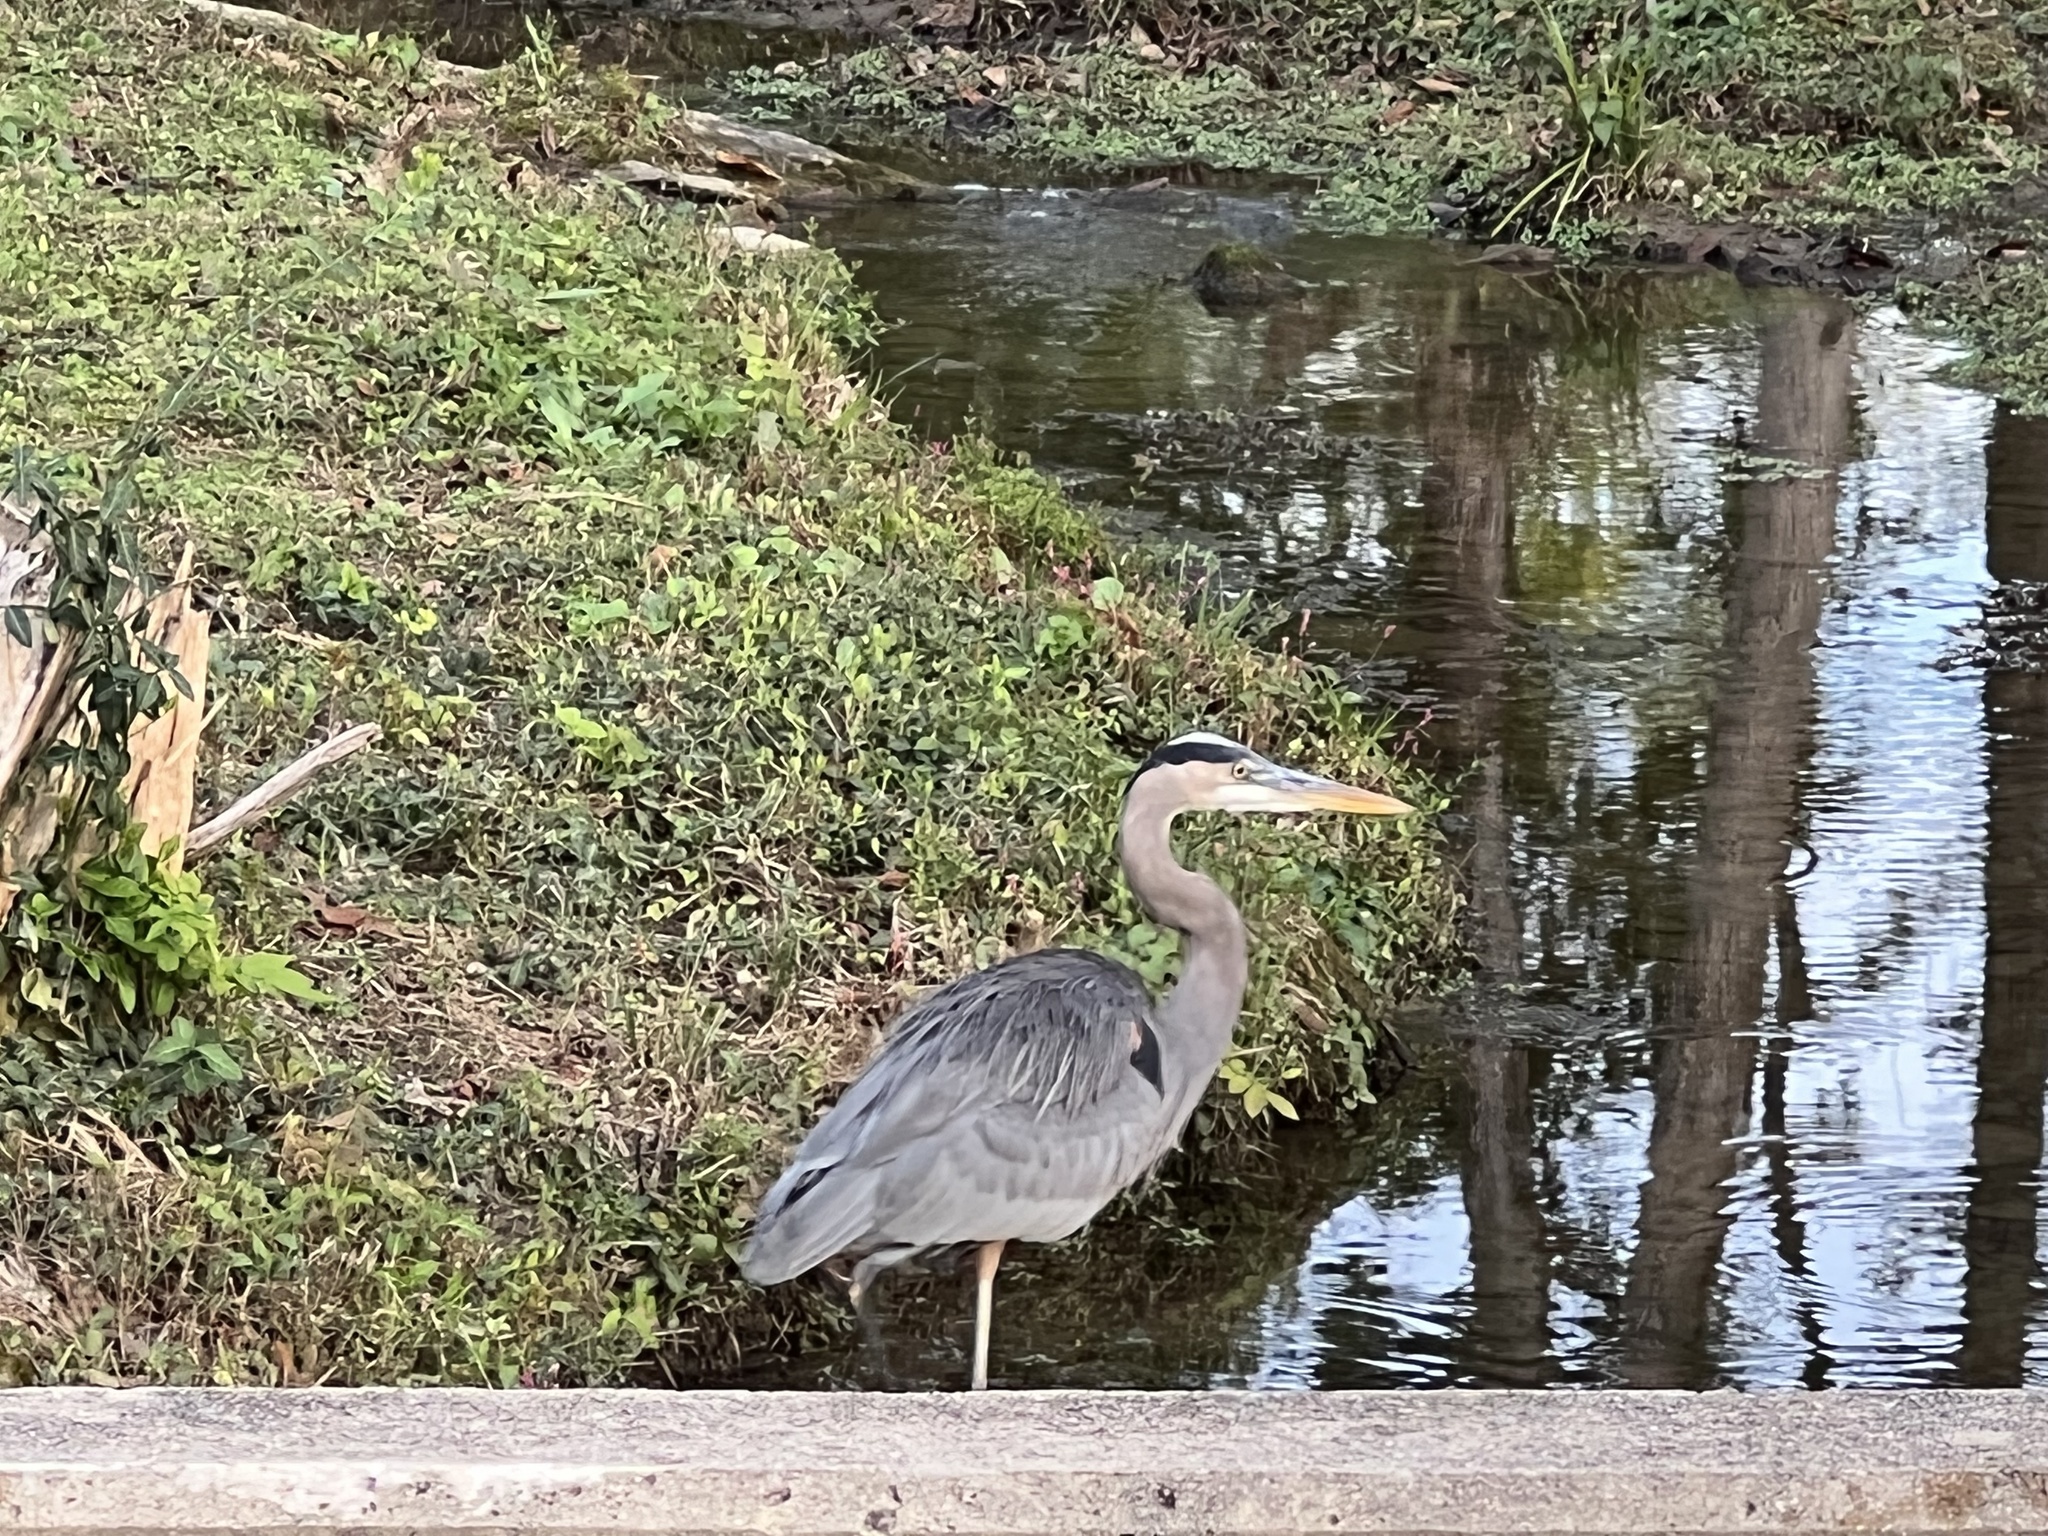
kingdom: Animalia
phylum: Chordata
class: Aves
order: Pelecaniformes
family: Ardeidae
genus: Ardea
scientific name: Ardea herodias
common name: Great blue heron
